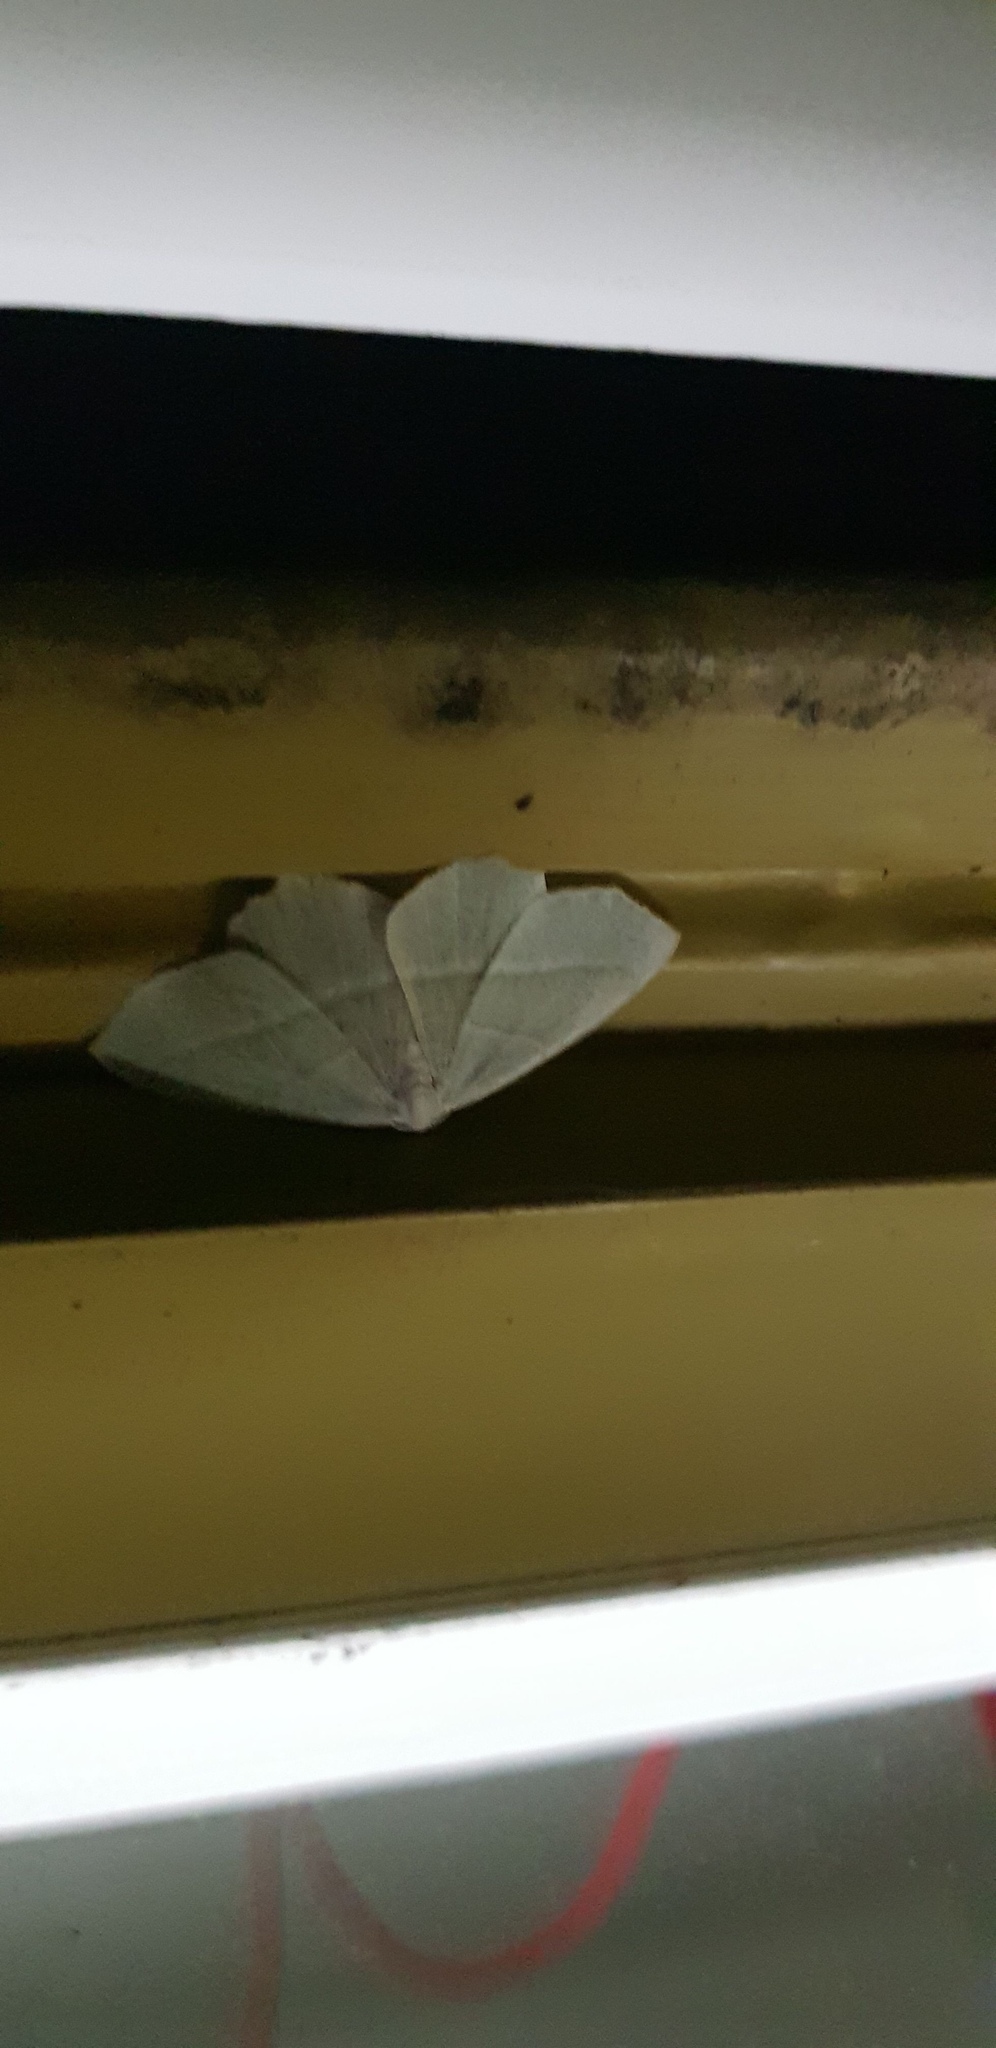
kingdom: Animalia
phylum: Arthropoda
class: Insecta
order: Lepidoptera
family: Geometridae
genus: Campaea
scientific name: Campaea margaritaria
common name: Light emerald
